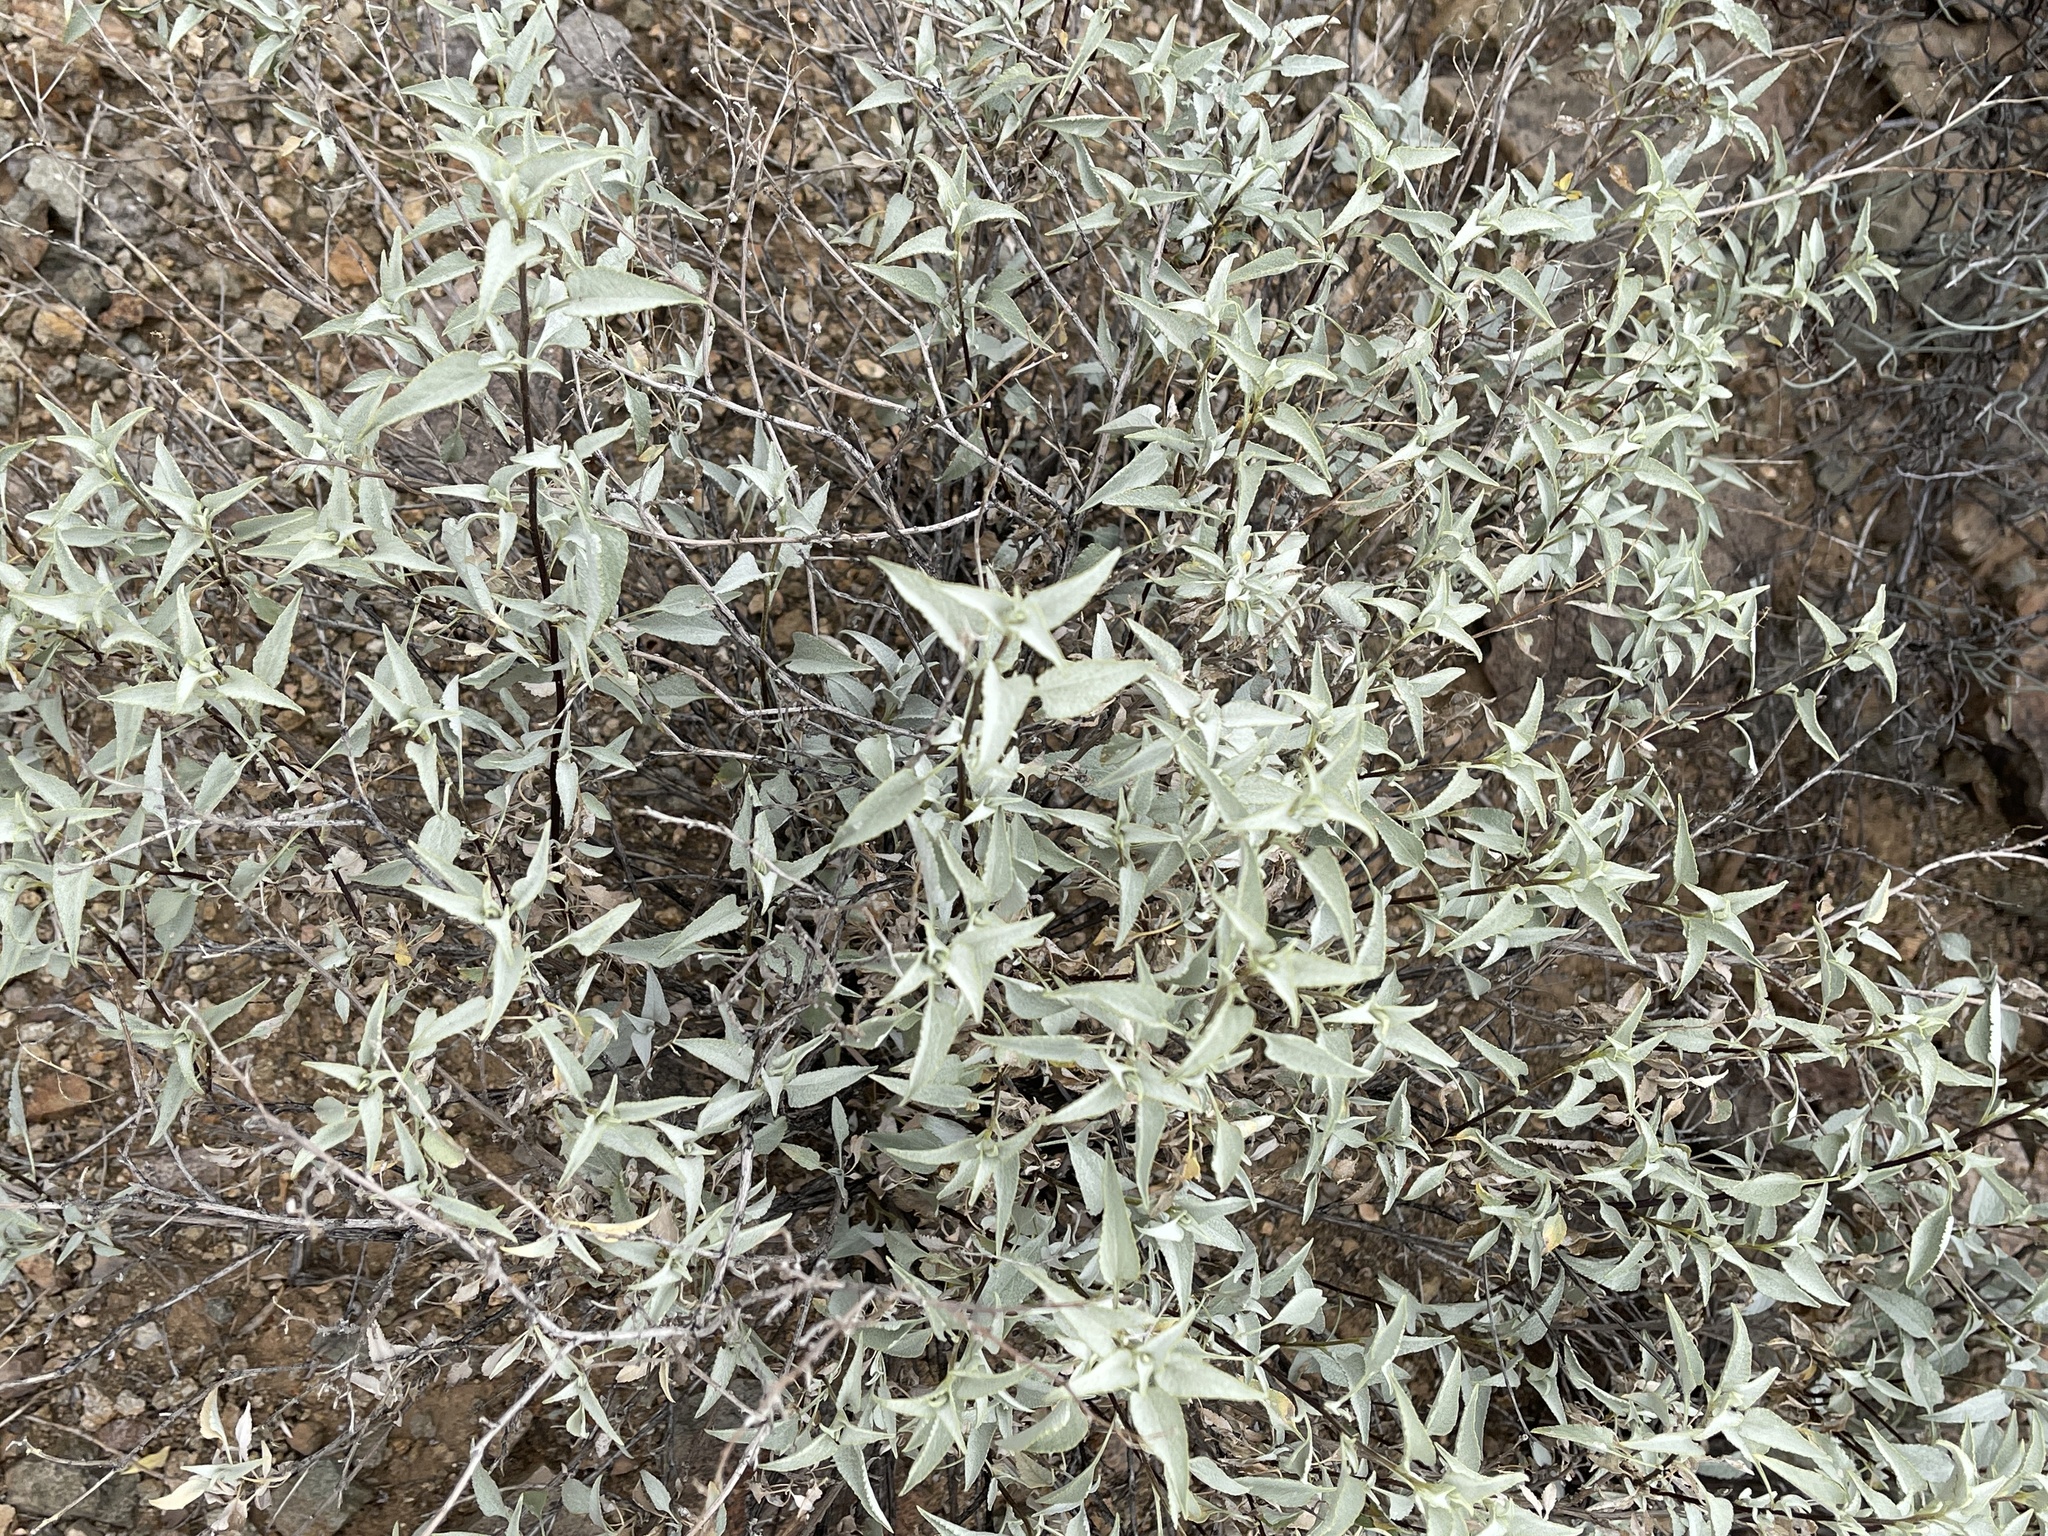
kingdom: Plantae
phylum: Tracheophyta
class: Magnoliopsida
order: Asterales
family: Asteraceae
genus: Encelia
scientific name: Encelia farinosa
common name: Brittlebush
